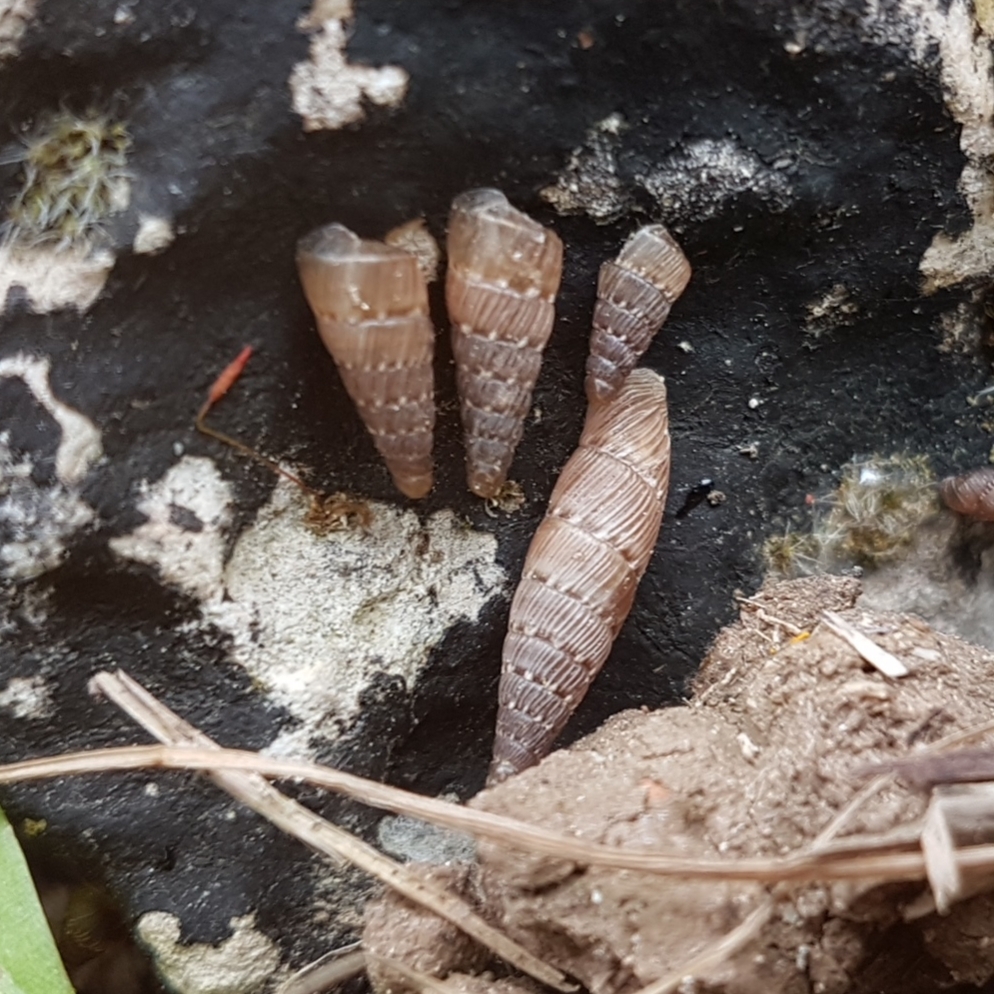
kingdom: Animalia
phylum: Mollusca
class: Gastropoda
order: Stylommatophora
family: Clausiliidae
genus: Papillifera
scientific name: Papillifera papillaris
